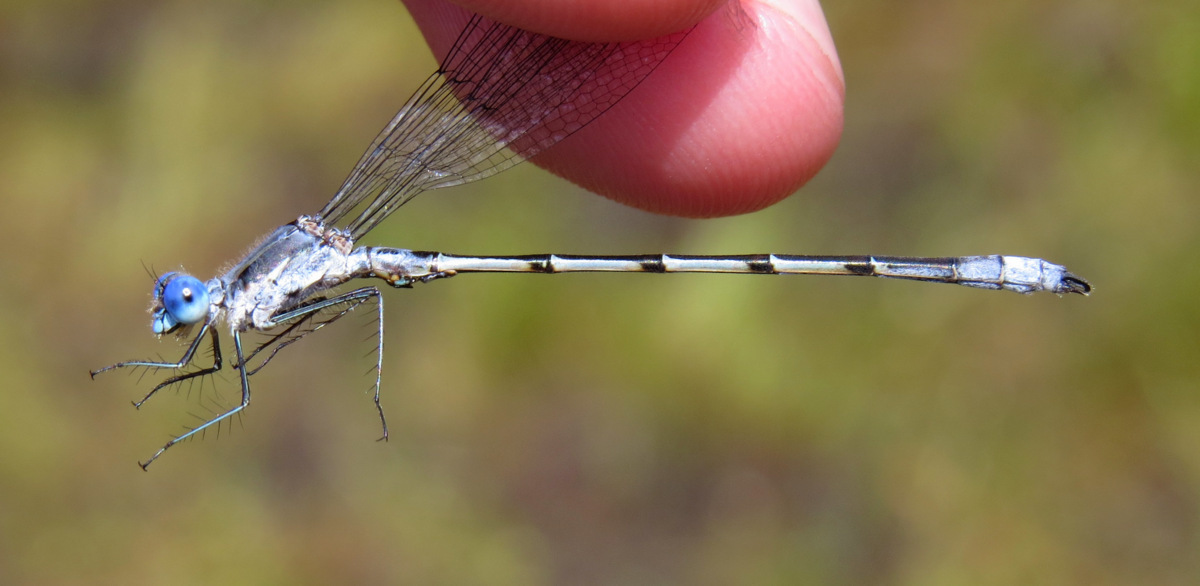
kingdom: Animalia
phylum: Arthropoda
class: Insecta
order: Odonata
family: Lestidae
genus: Lestes
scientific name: Lestes forcipatus
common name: Sweetflag spreadwing
